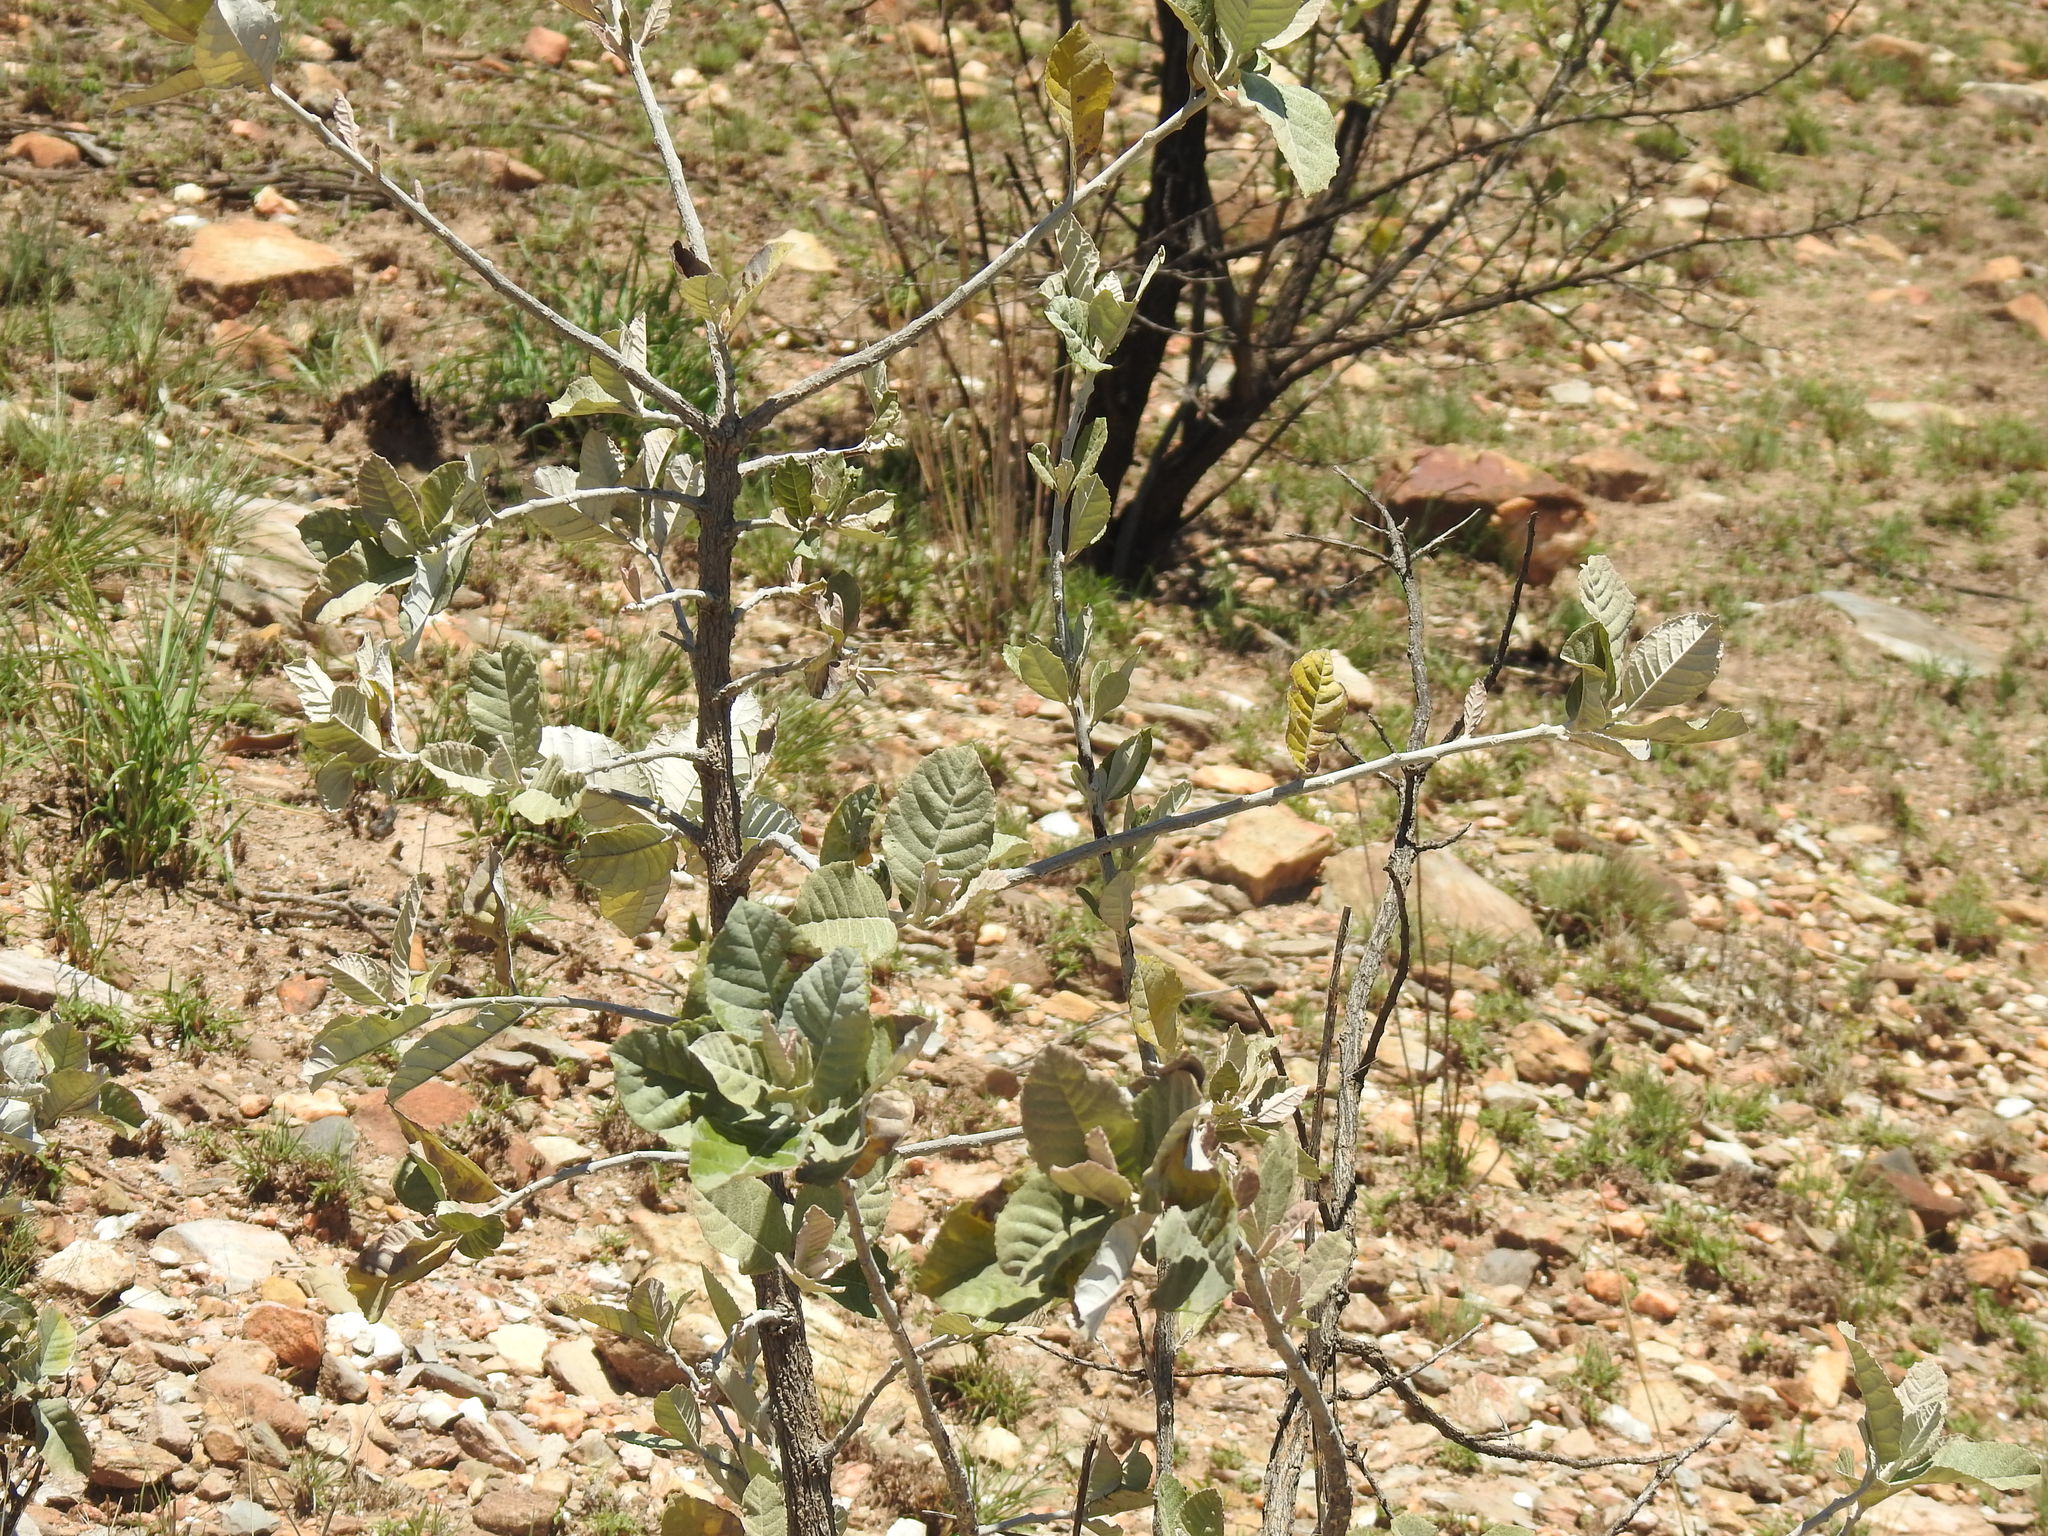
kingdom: Plantae
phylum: Tracheophyta
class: Magnoliopsida
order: Asterales
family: Asteraceae
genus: Brachylaena
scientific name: Brachylaena discolor
